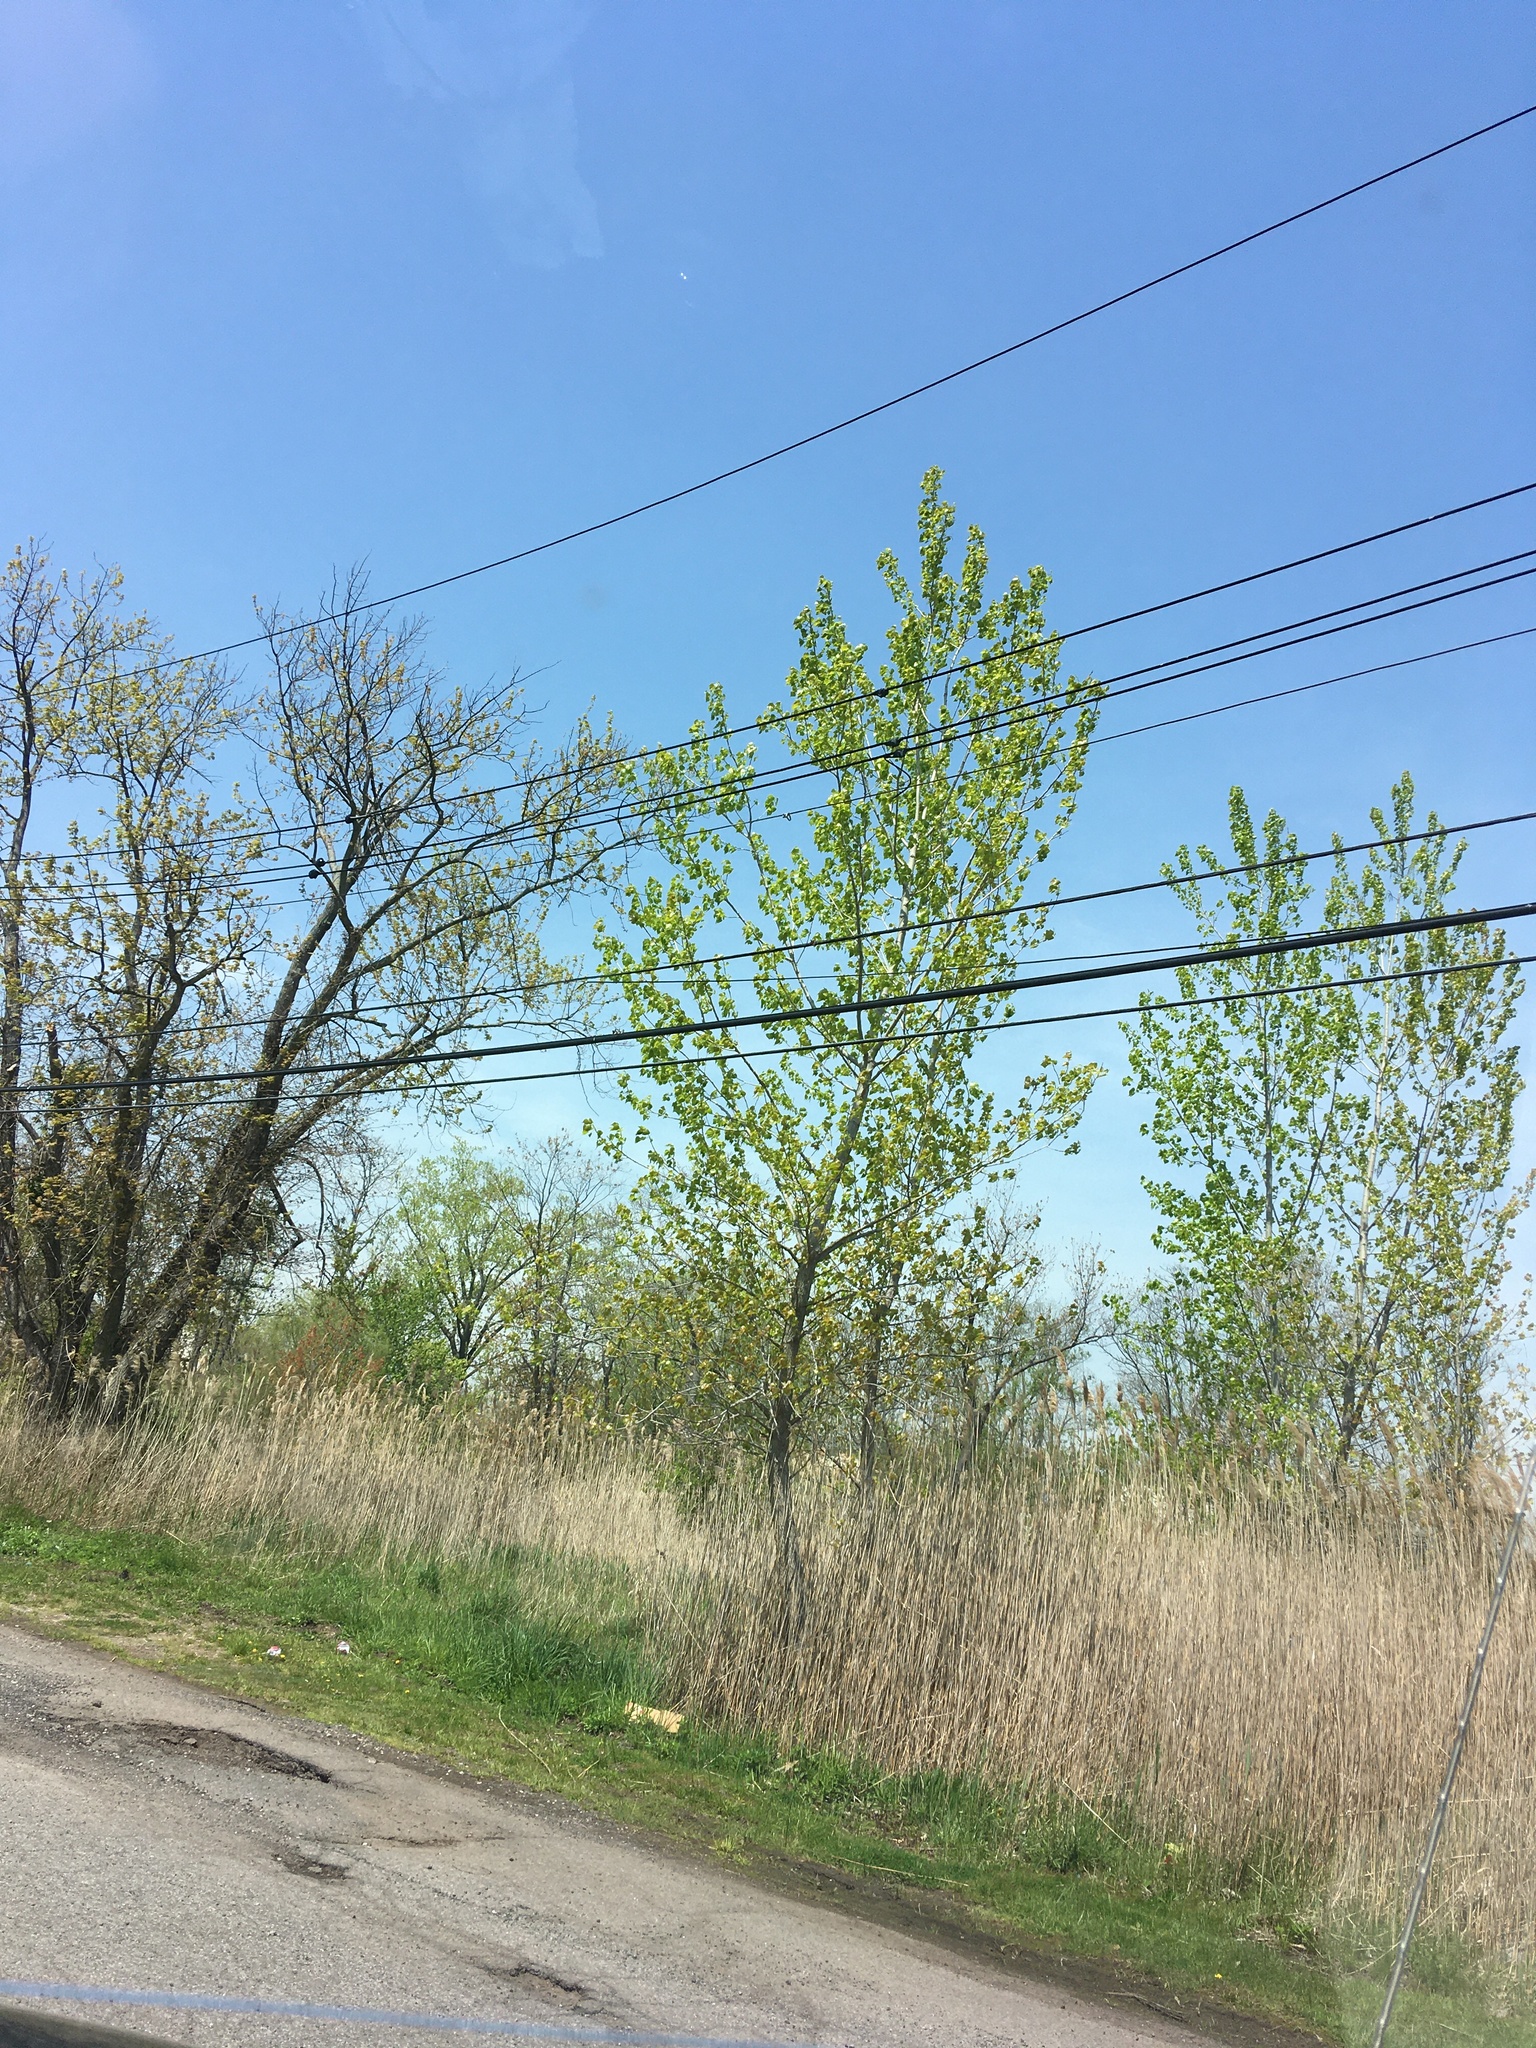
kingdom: Plantae
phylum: Tracheophyta
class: Magnoliopsida
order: Malpighiales
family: Salicaceae
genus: Populus
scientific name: Populus deltoides
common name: Eastern cottonwood
